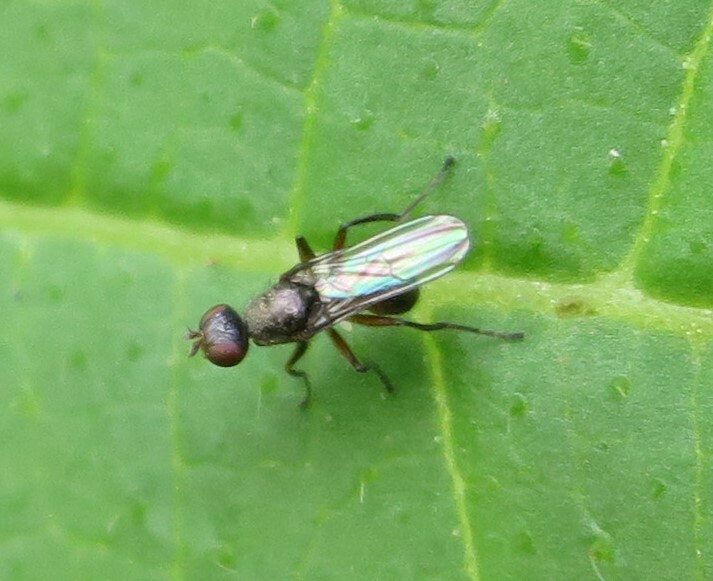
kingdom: Animalia
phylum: Arthropoda
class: Insecta
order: Diptera
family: Sepsidae
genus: Lasionemopoda
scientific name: Lasionemopoda hirsuta
